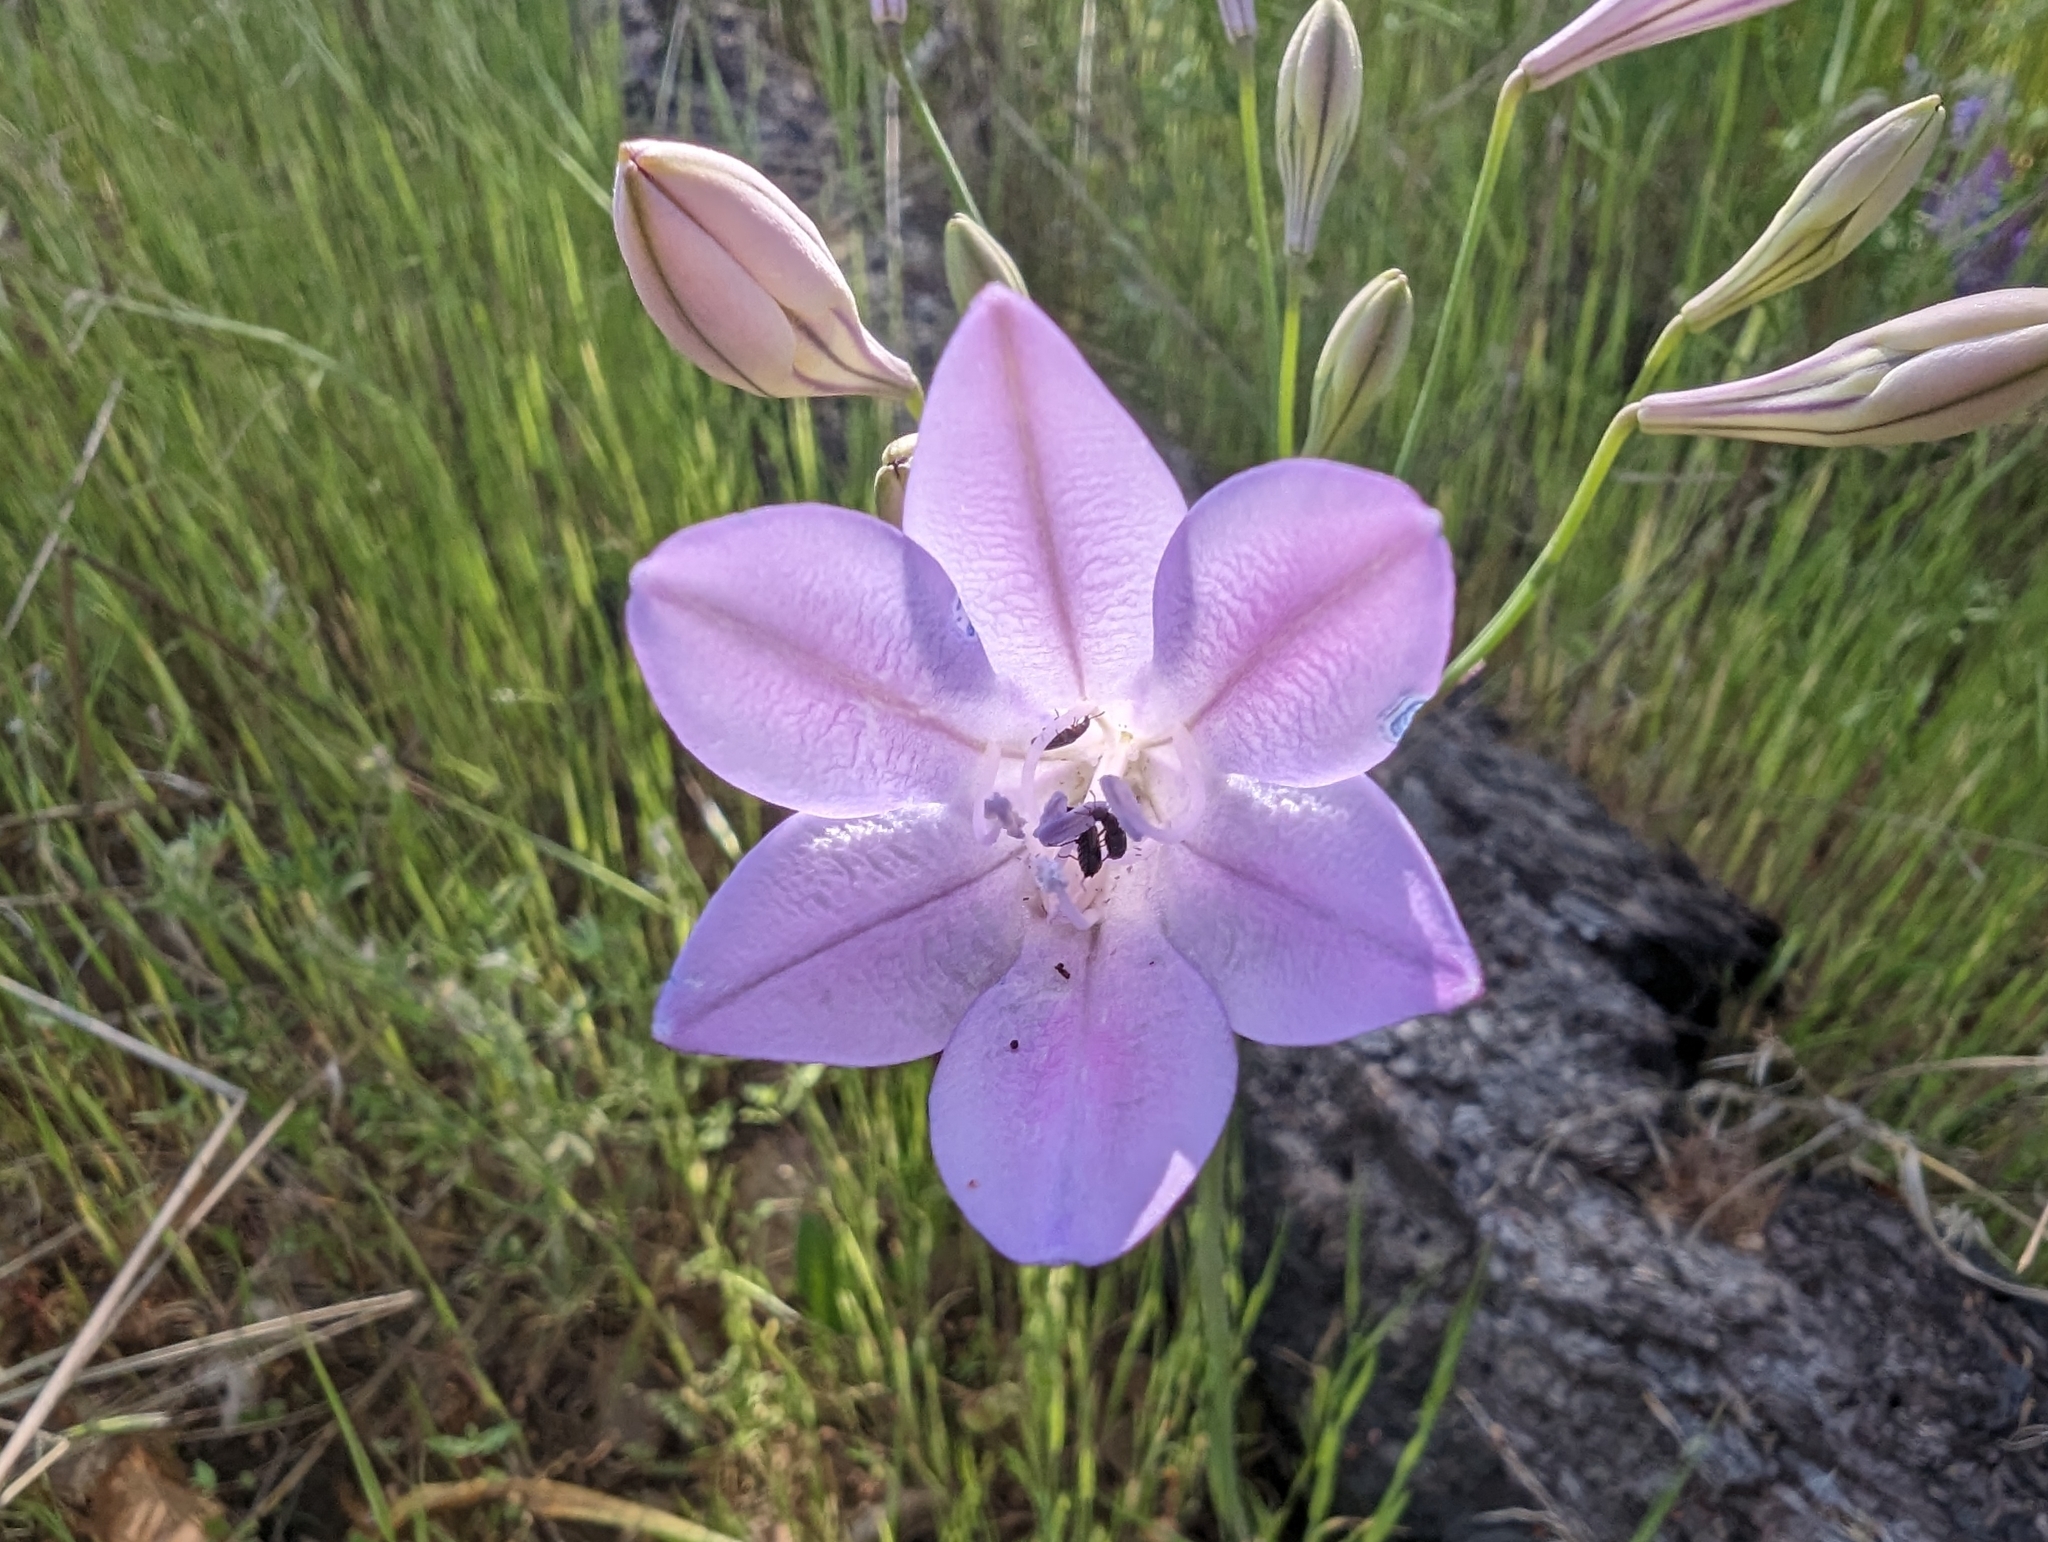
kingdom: Plantae
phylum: Tracheophyta
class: Liliopsida
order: Asparagales
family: Asparagaceae
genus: Triteleia
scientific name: Triteleia laxa
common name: Triplet-lily
